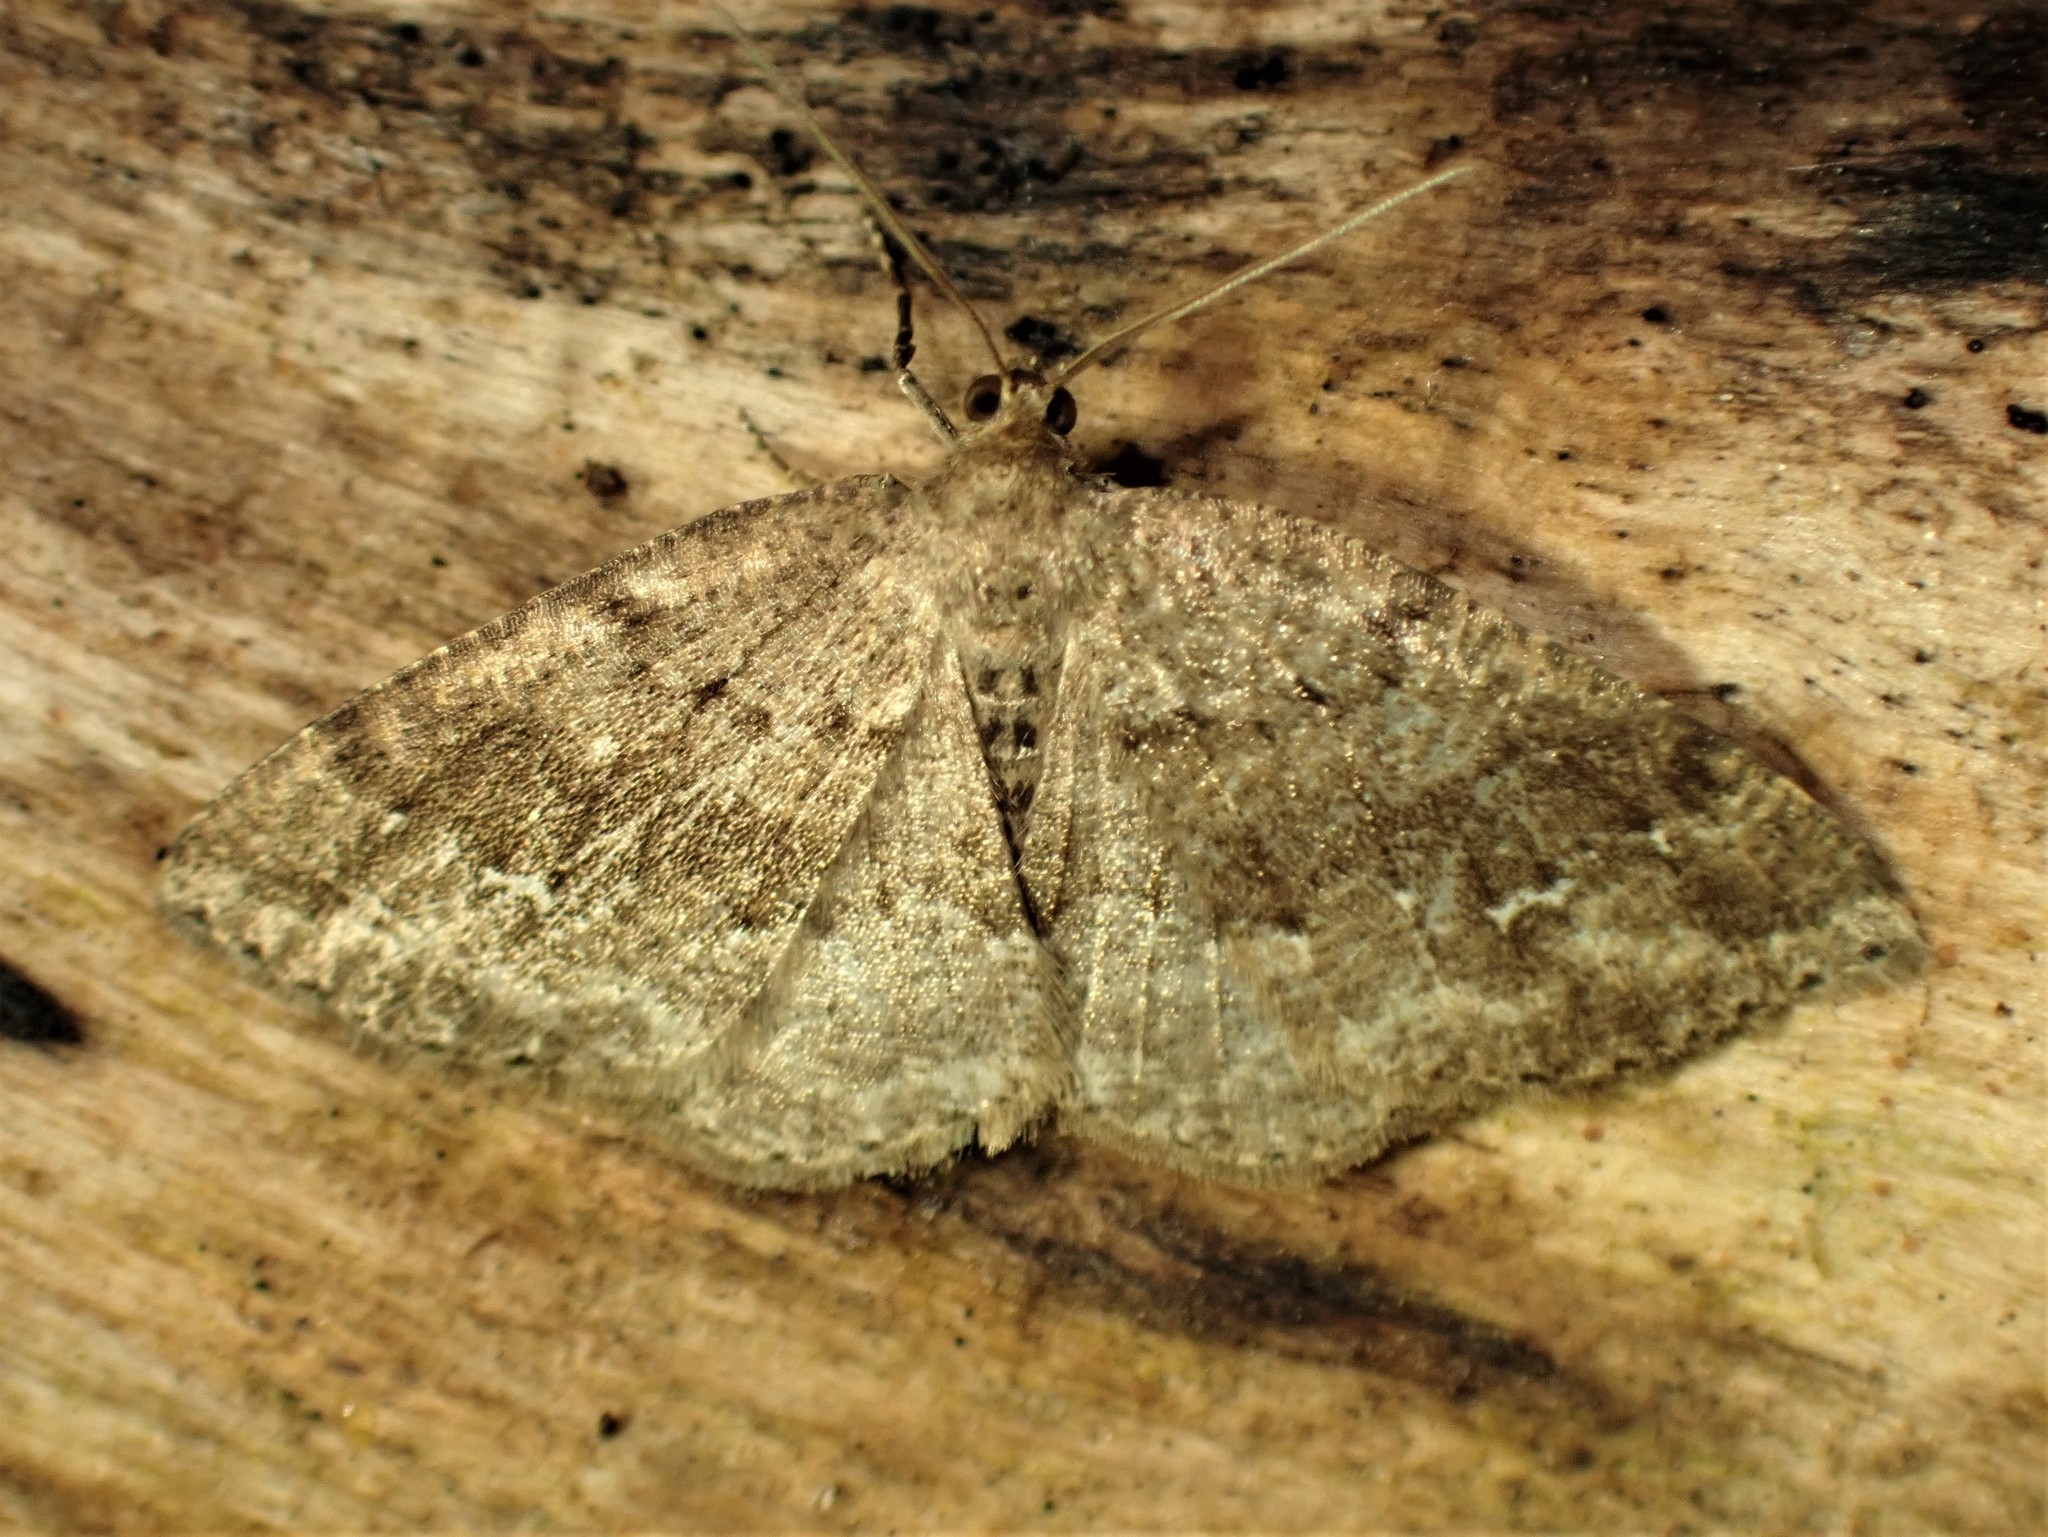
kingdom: Animalia
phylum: Arthropoda
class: Insecta
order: Lepidoptera
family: Geometridae
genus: Homochlodes
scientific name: Homochlodes fritillaria
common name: Pale homochlodes
